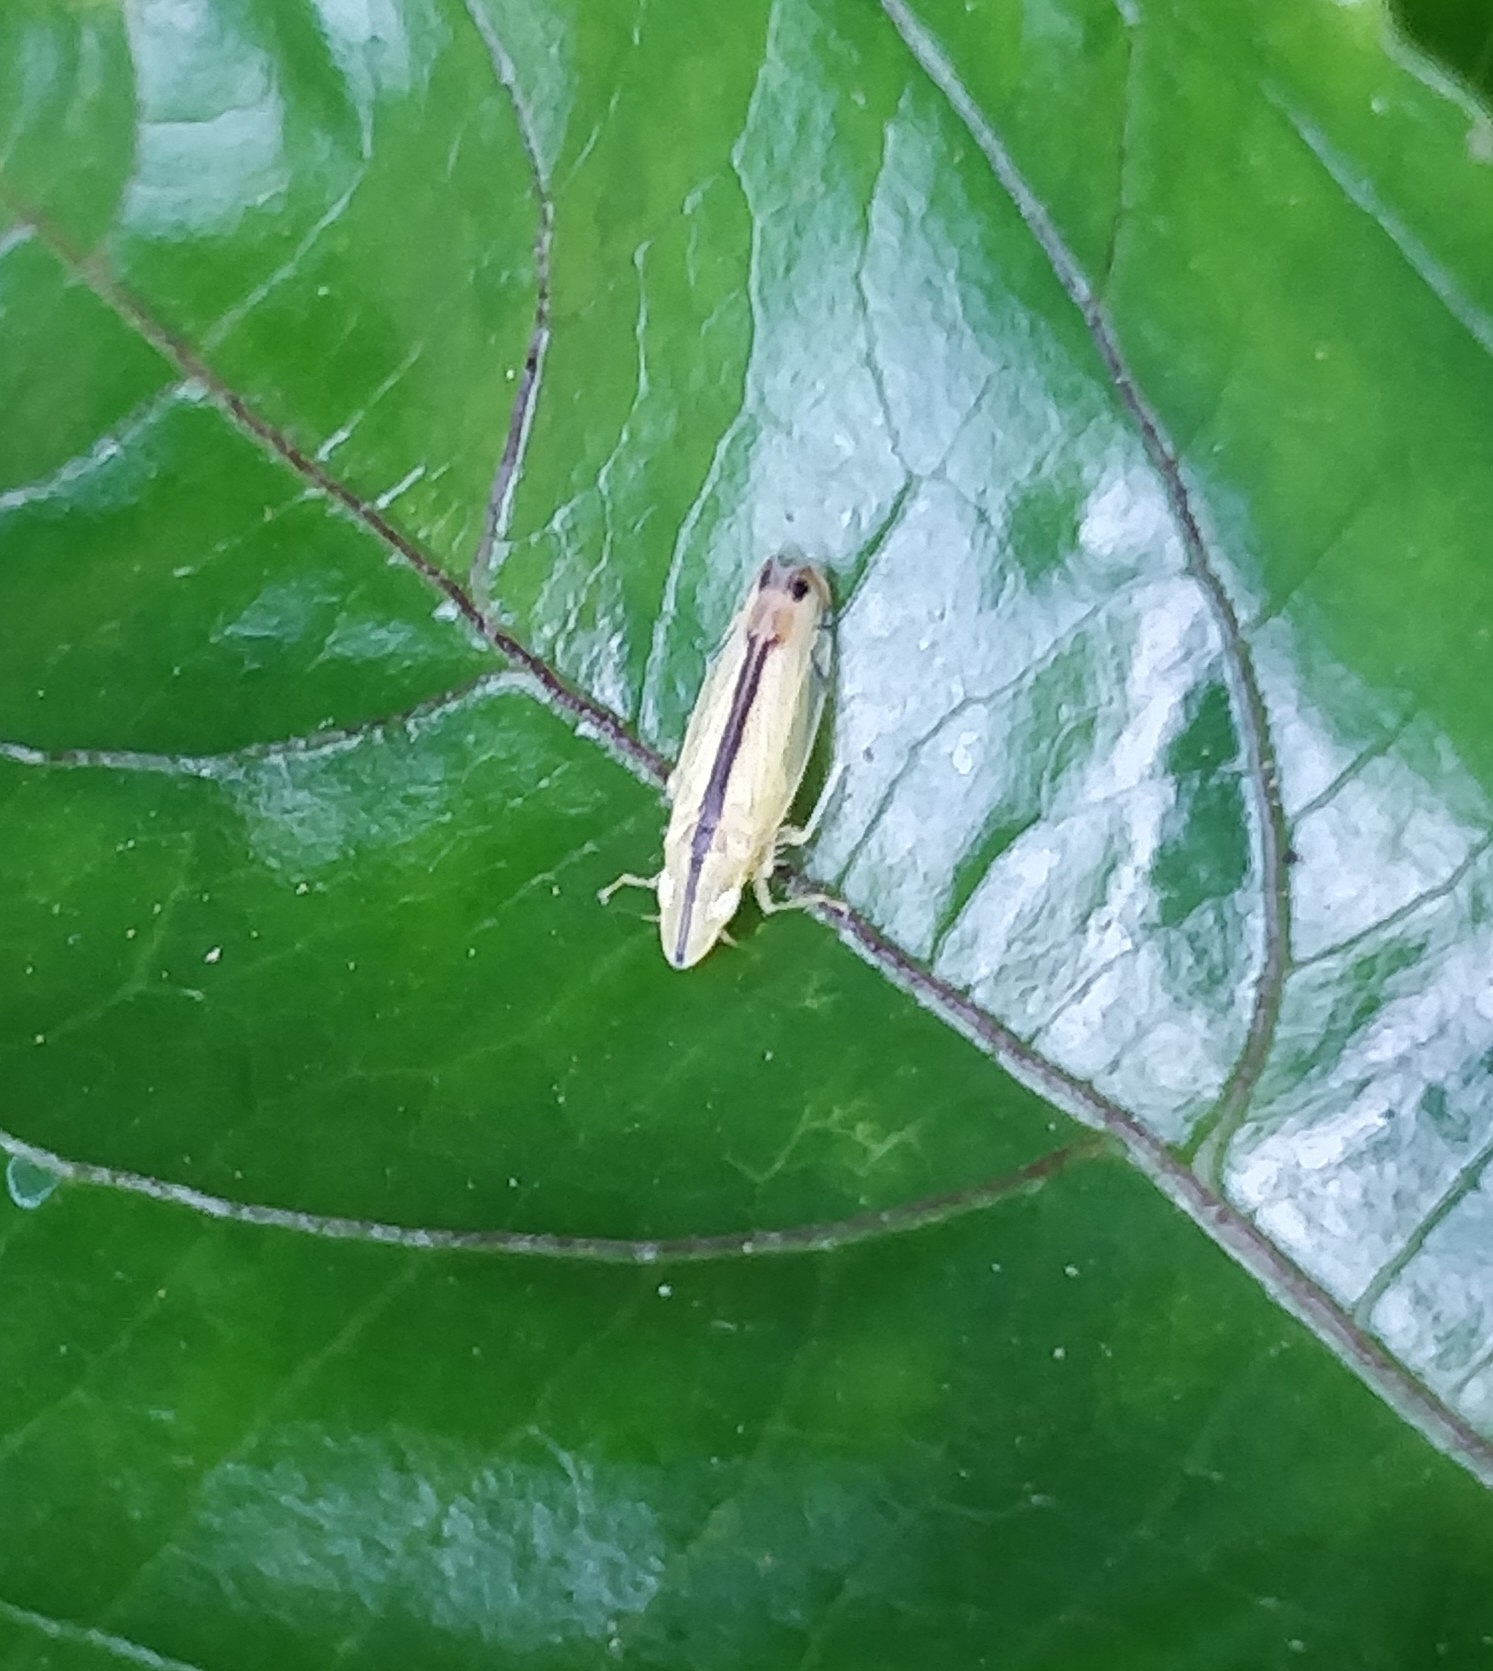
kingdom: Animalia
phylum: Arthropoda
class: Insecta
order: Hemiptera
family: Cicadellidae
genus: Sophonia
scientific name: Sophonia orientalis
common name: Two-spotted leafhopper
